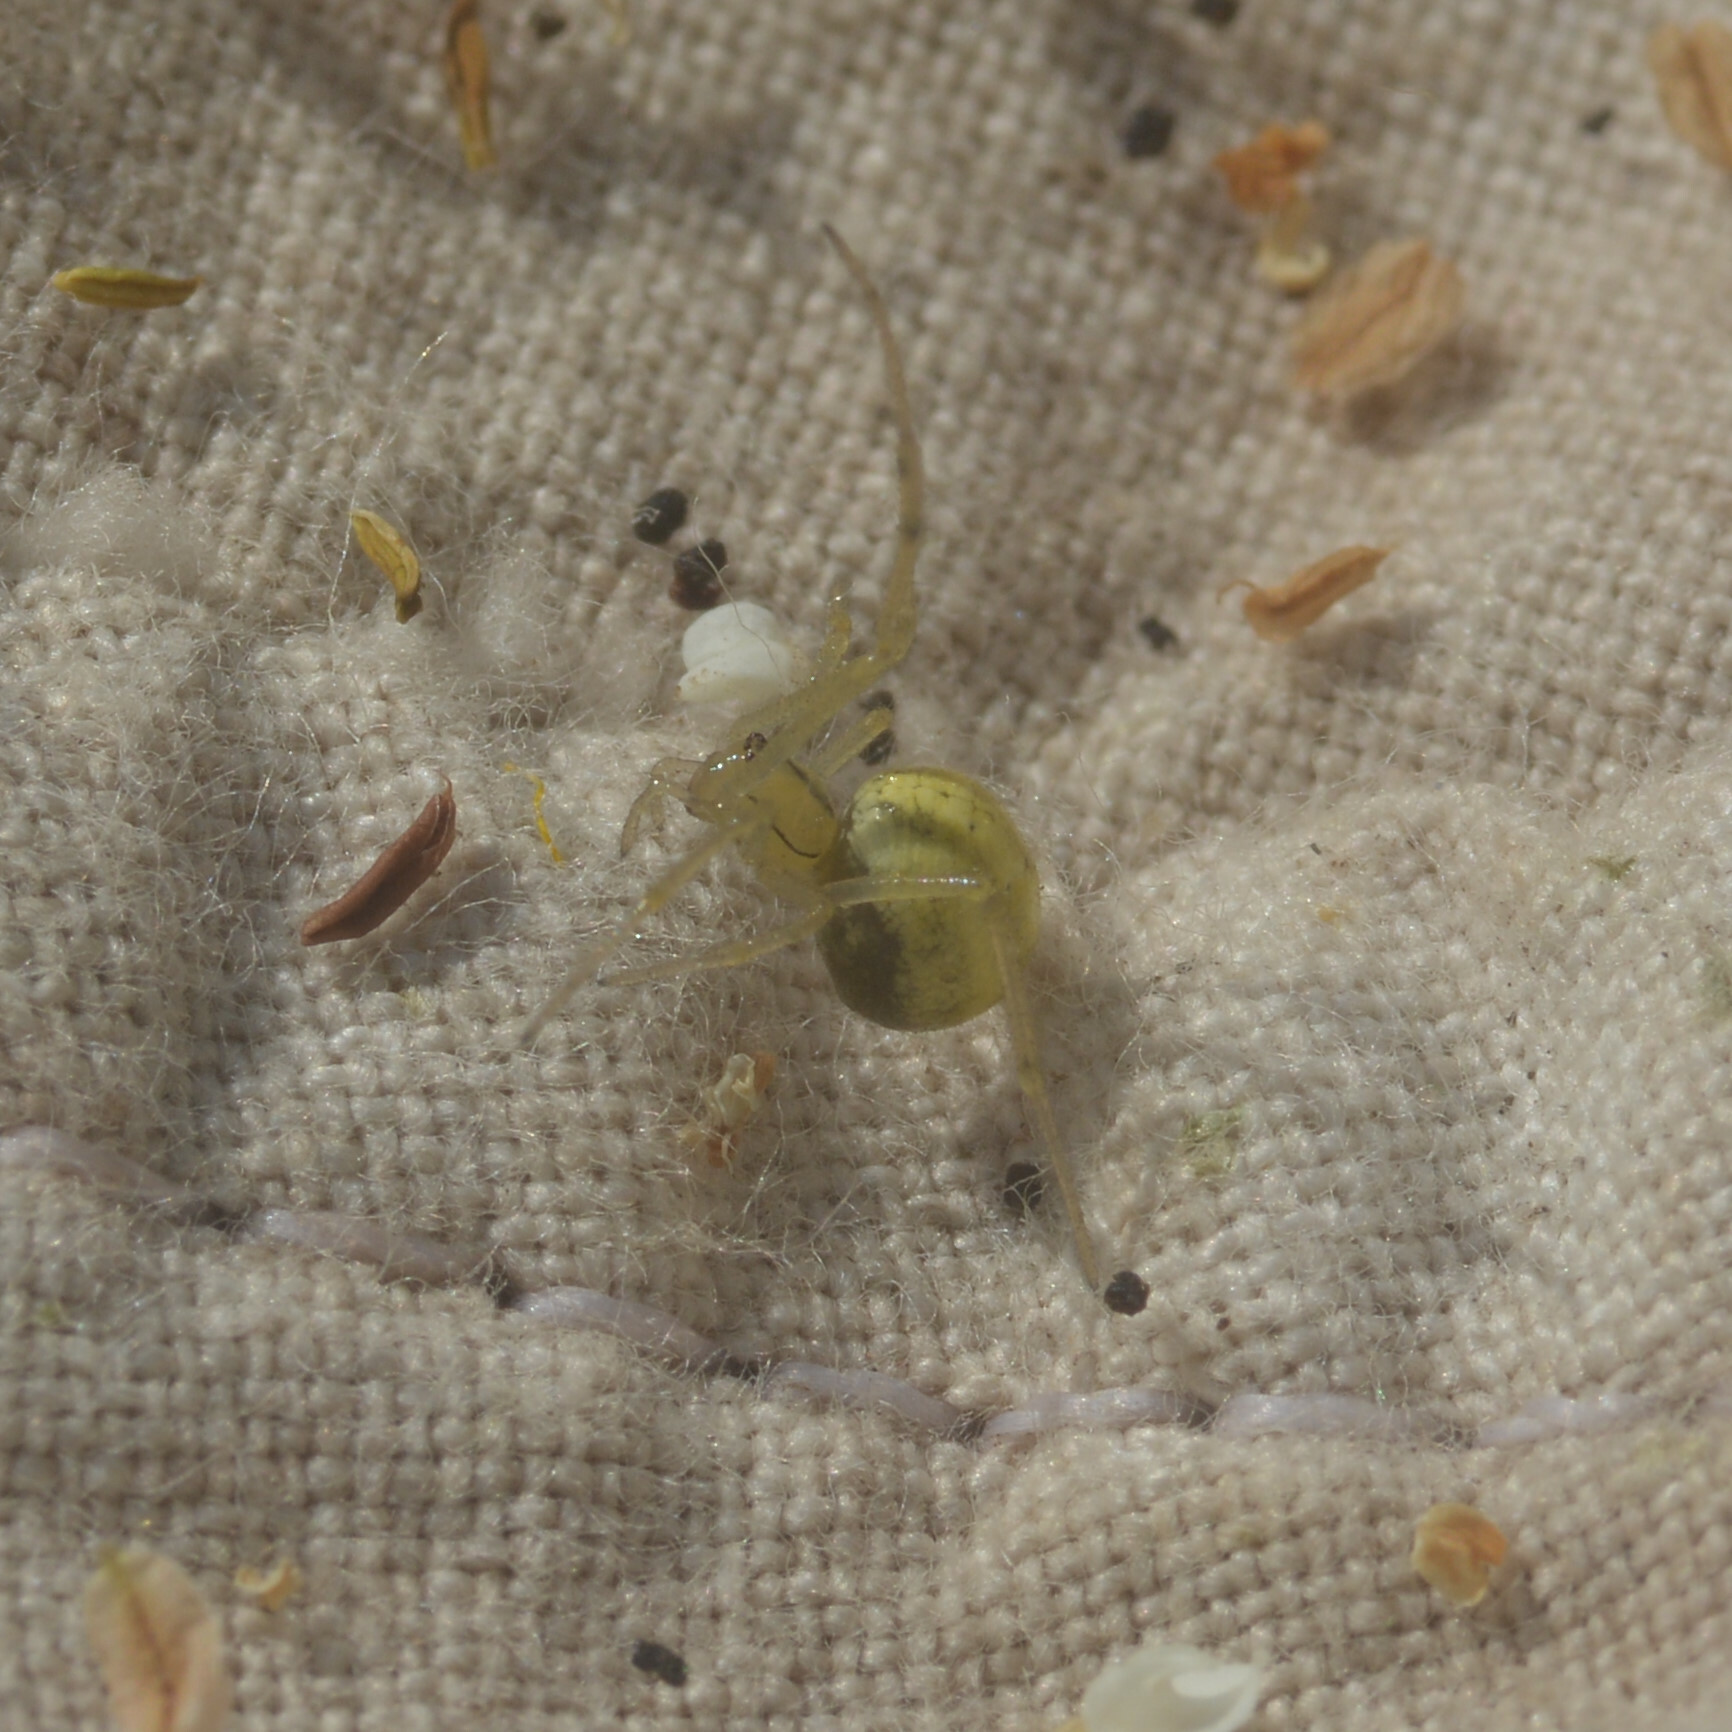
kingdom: Animalia
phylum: Arthropoda
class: Arachnida
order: Araneae
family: Theridiidae
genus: Enoplognatha
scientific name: Enoplognatha
